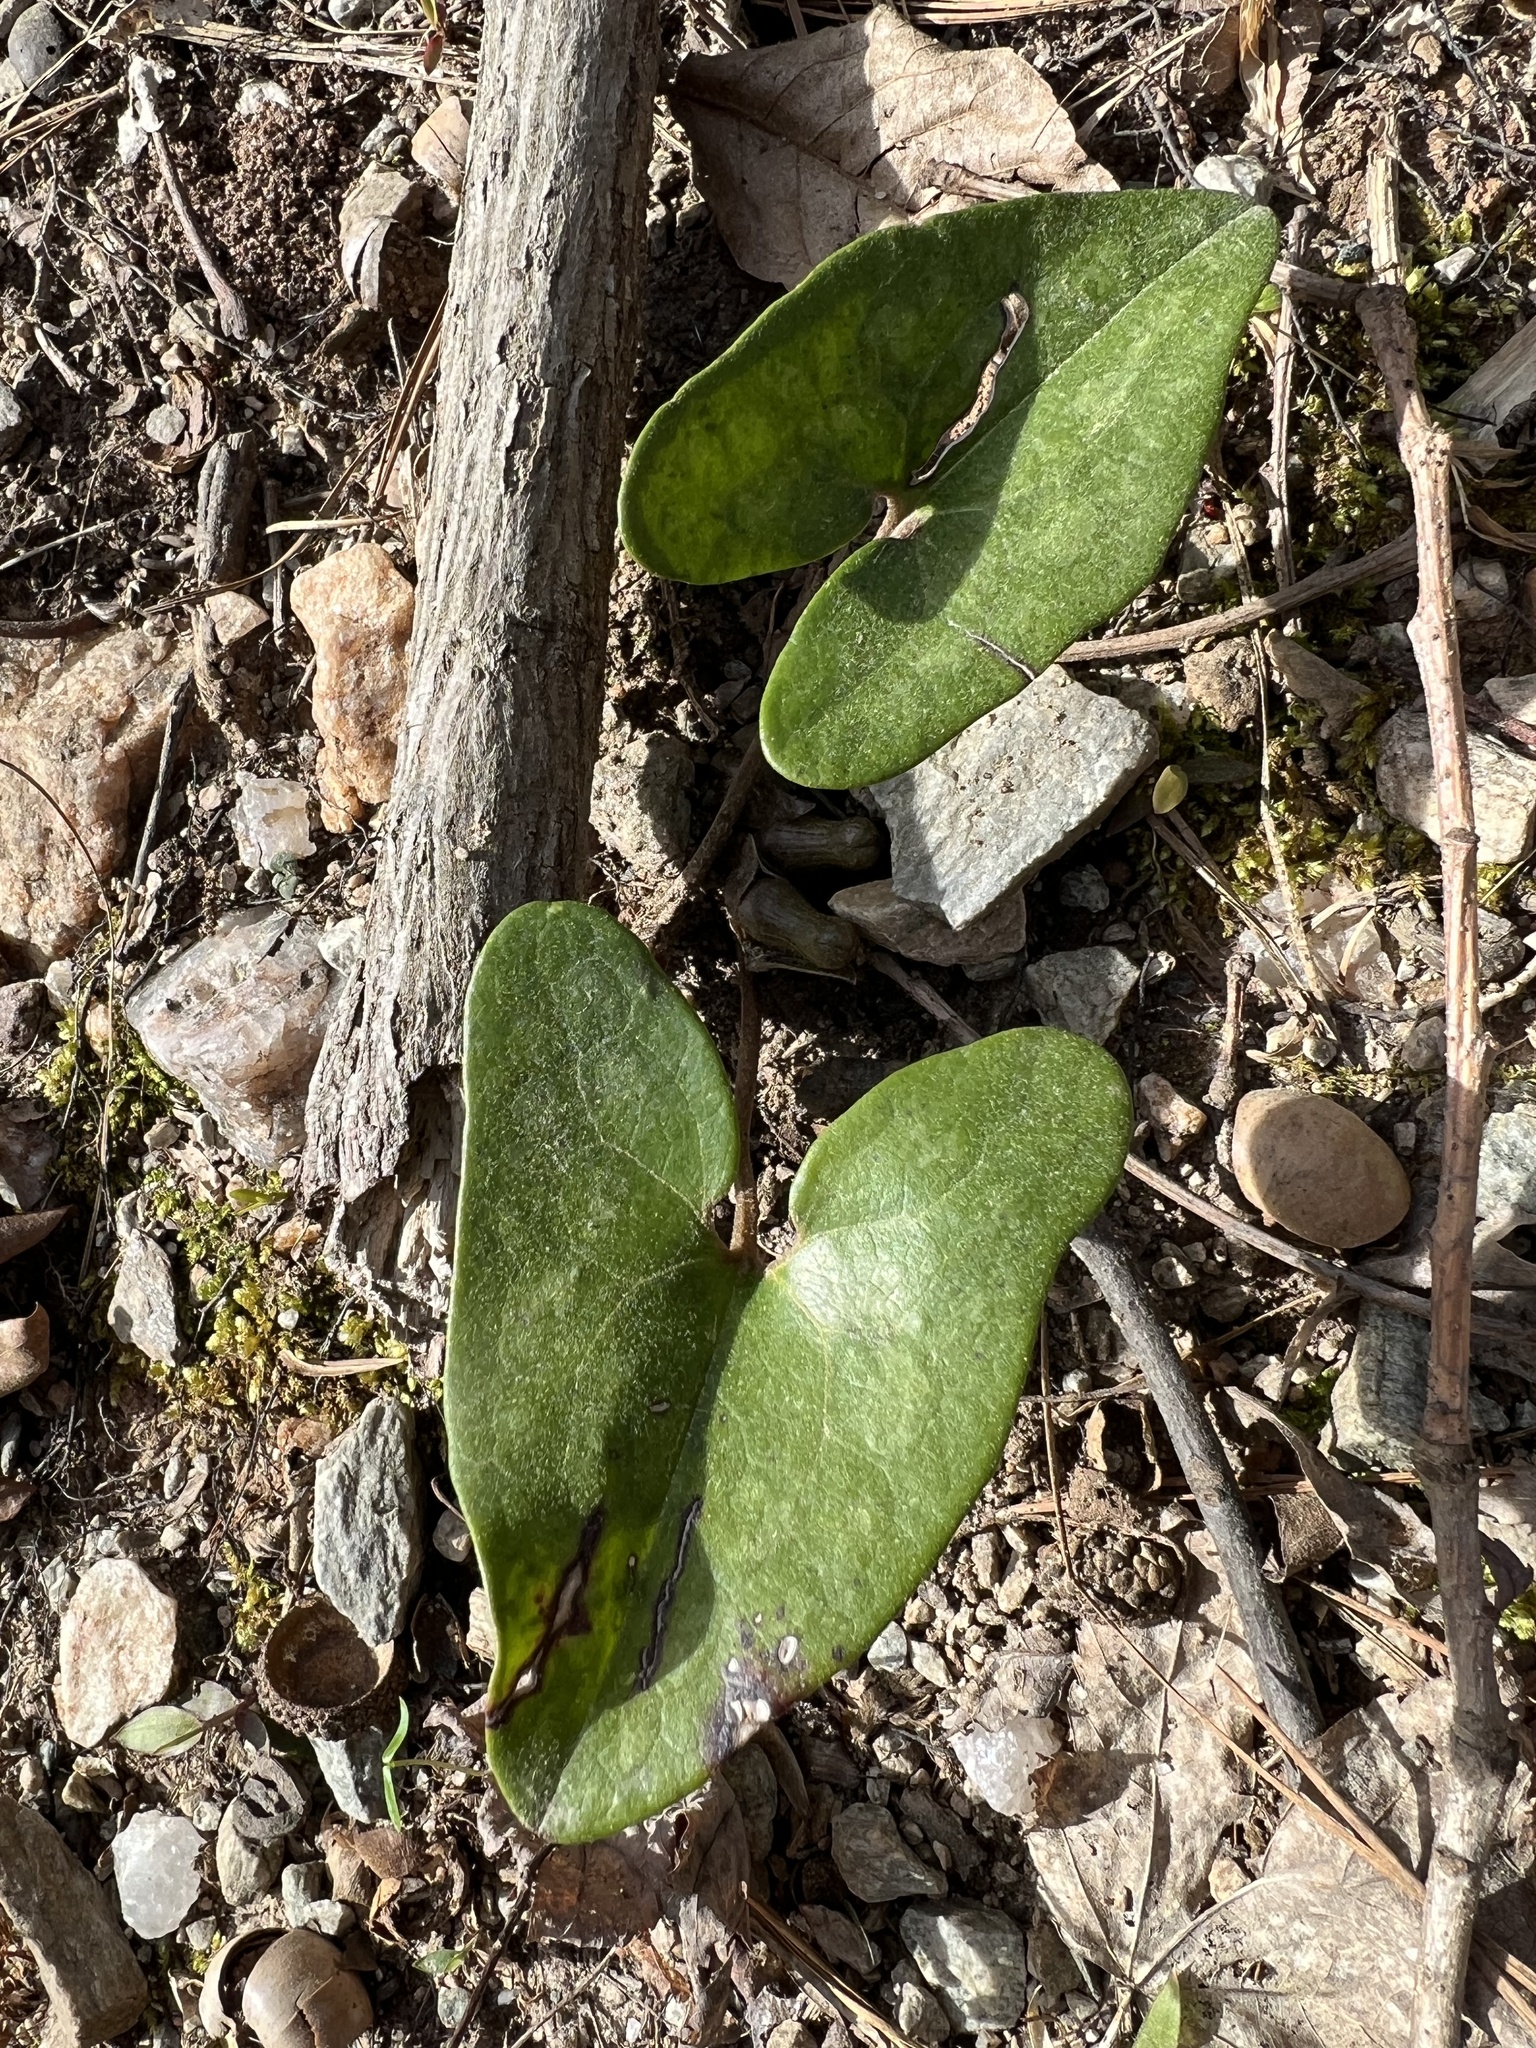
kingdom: Plantae
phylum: Tracheophyta
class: Magnoliopsida
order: Piperales
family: Aristolochiaceae
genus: Hexastylis
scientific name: Hexastylis arifolia
